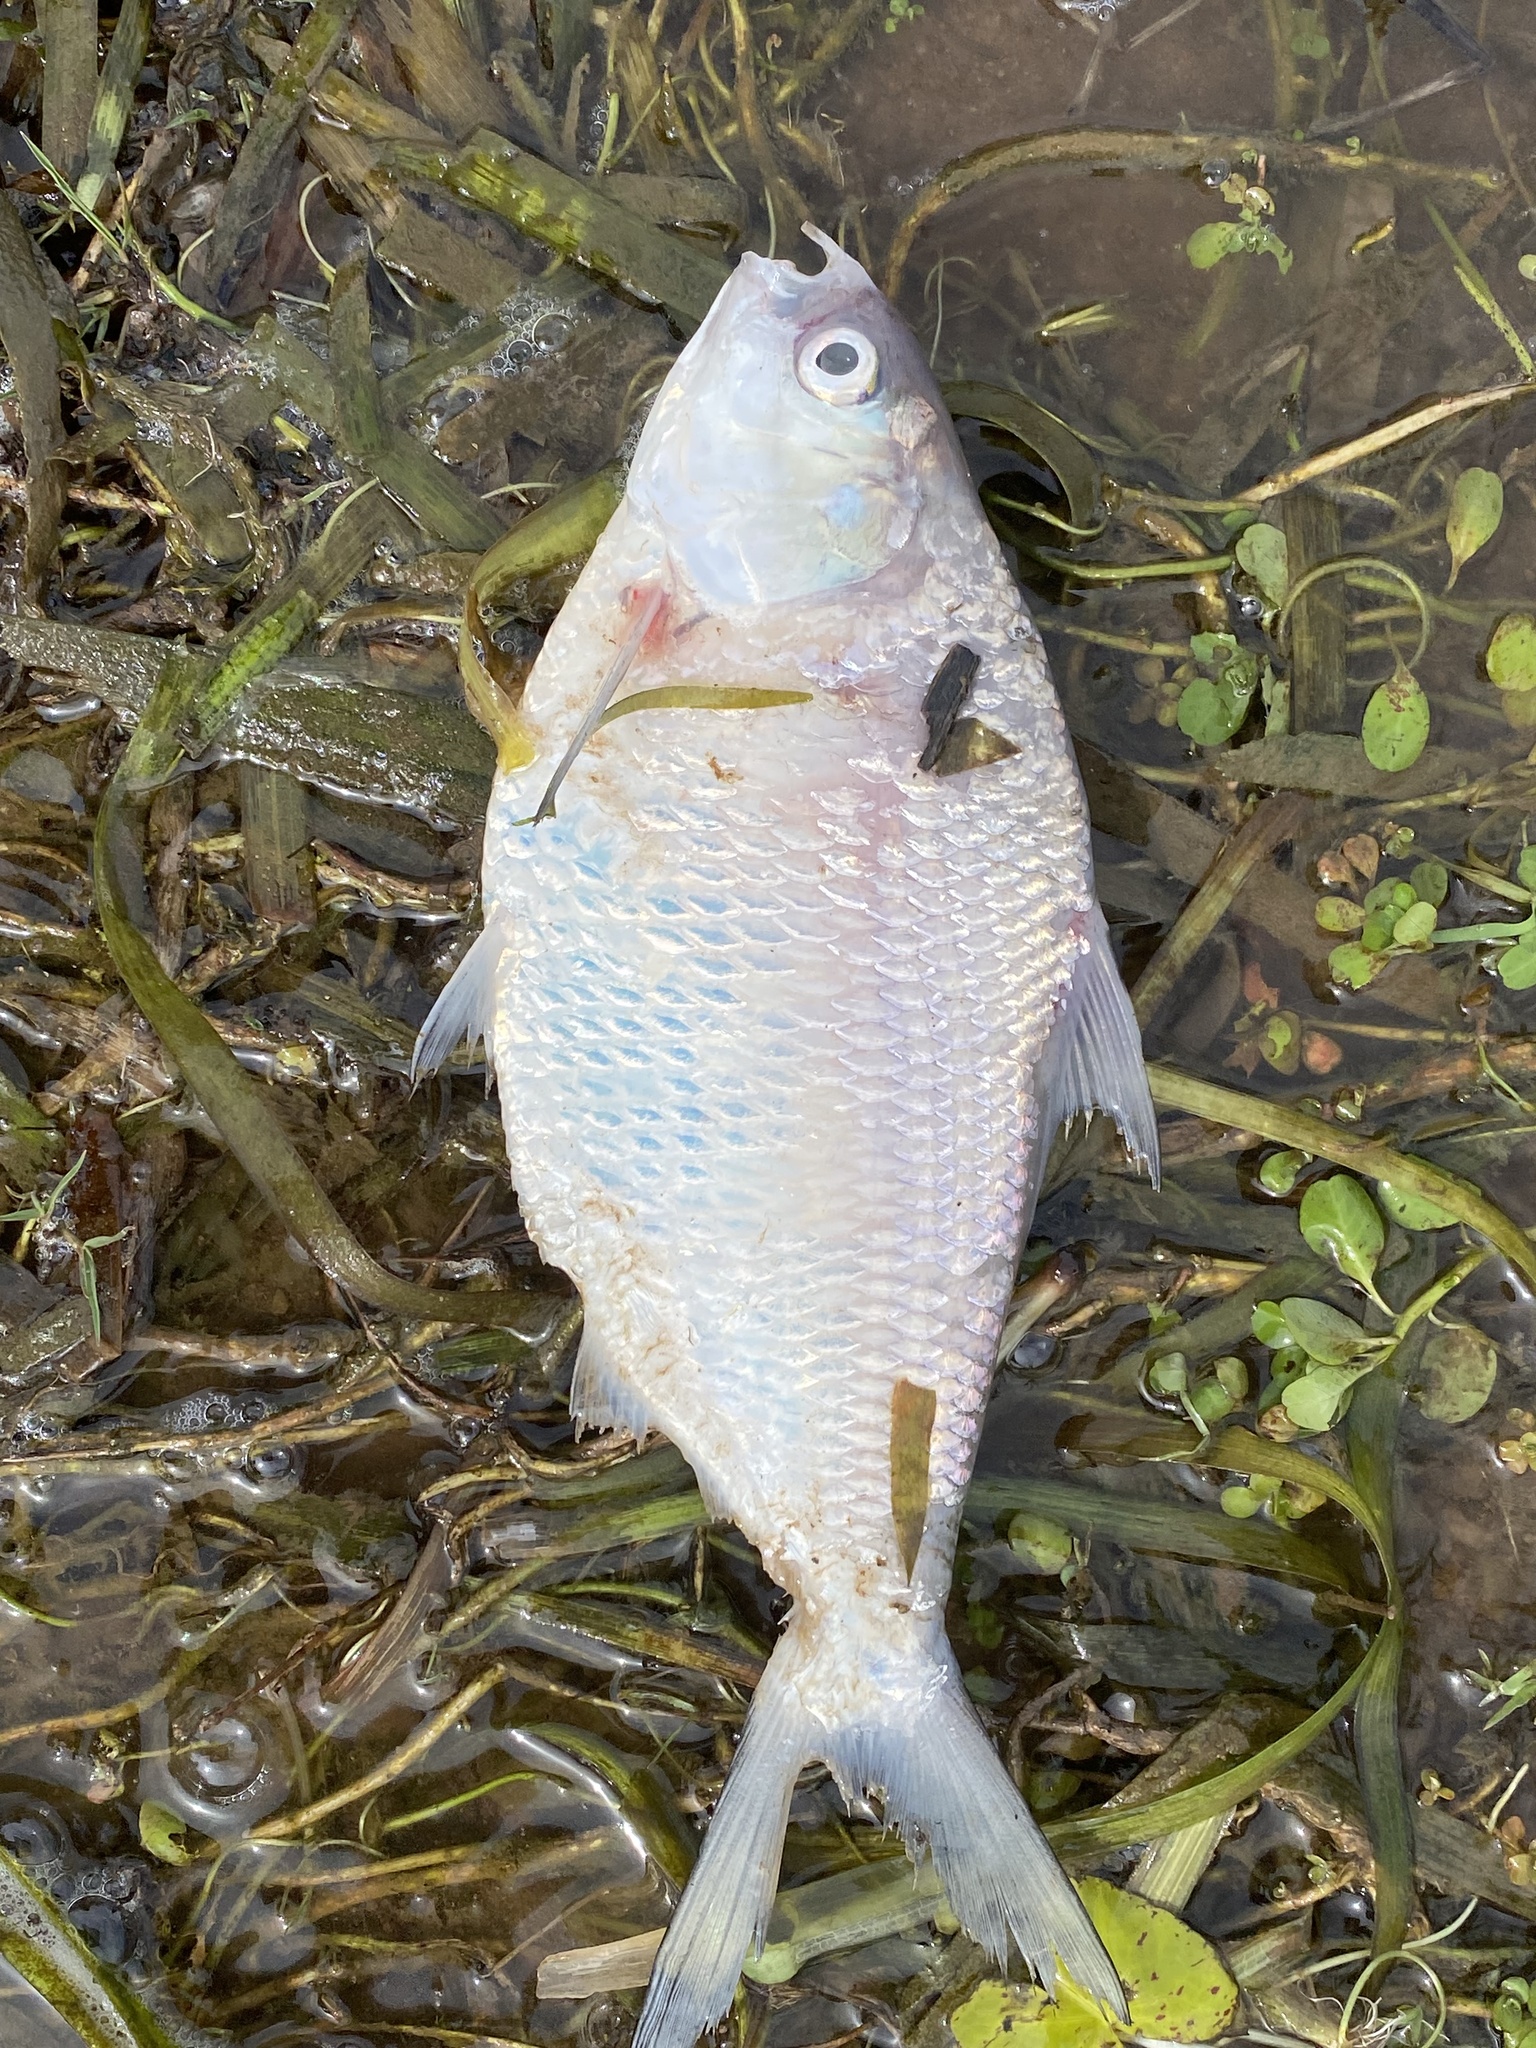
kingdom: Animalia
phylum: Chordata
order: Clupeiformes
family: Clupeidae
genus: Nematalosa
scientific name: Nematalosa erebi
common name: Australian river gizzard shad
